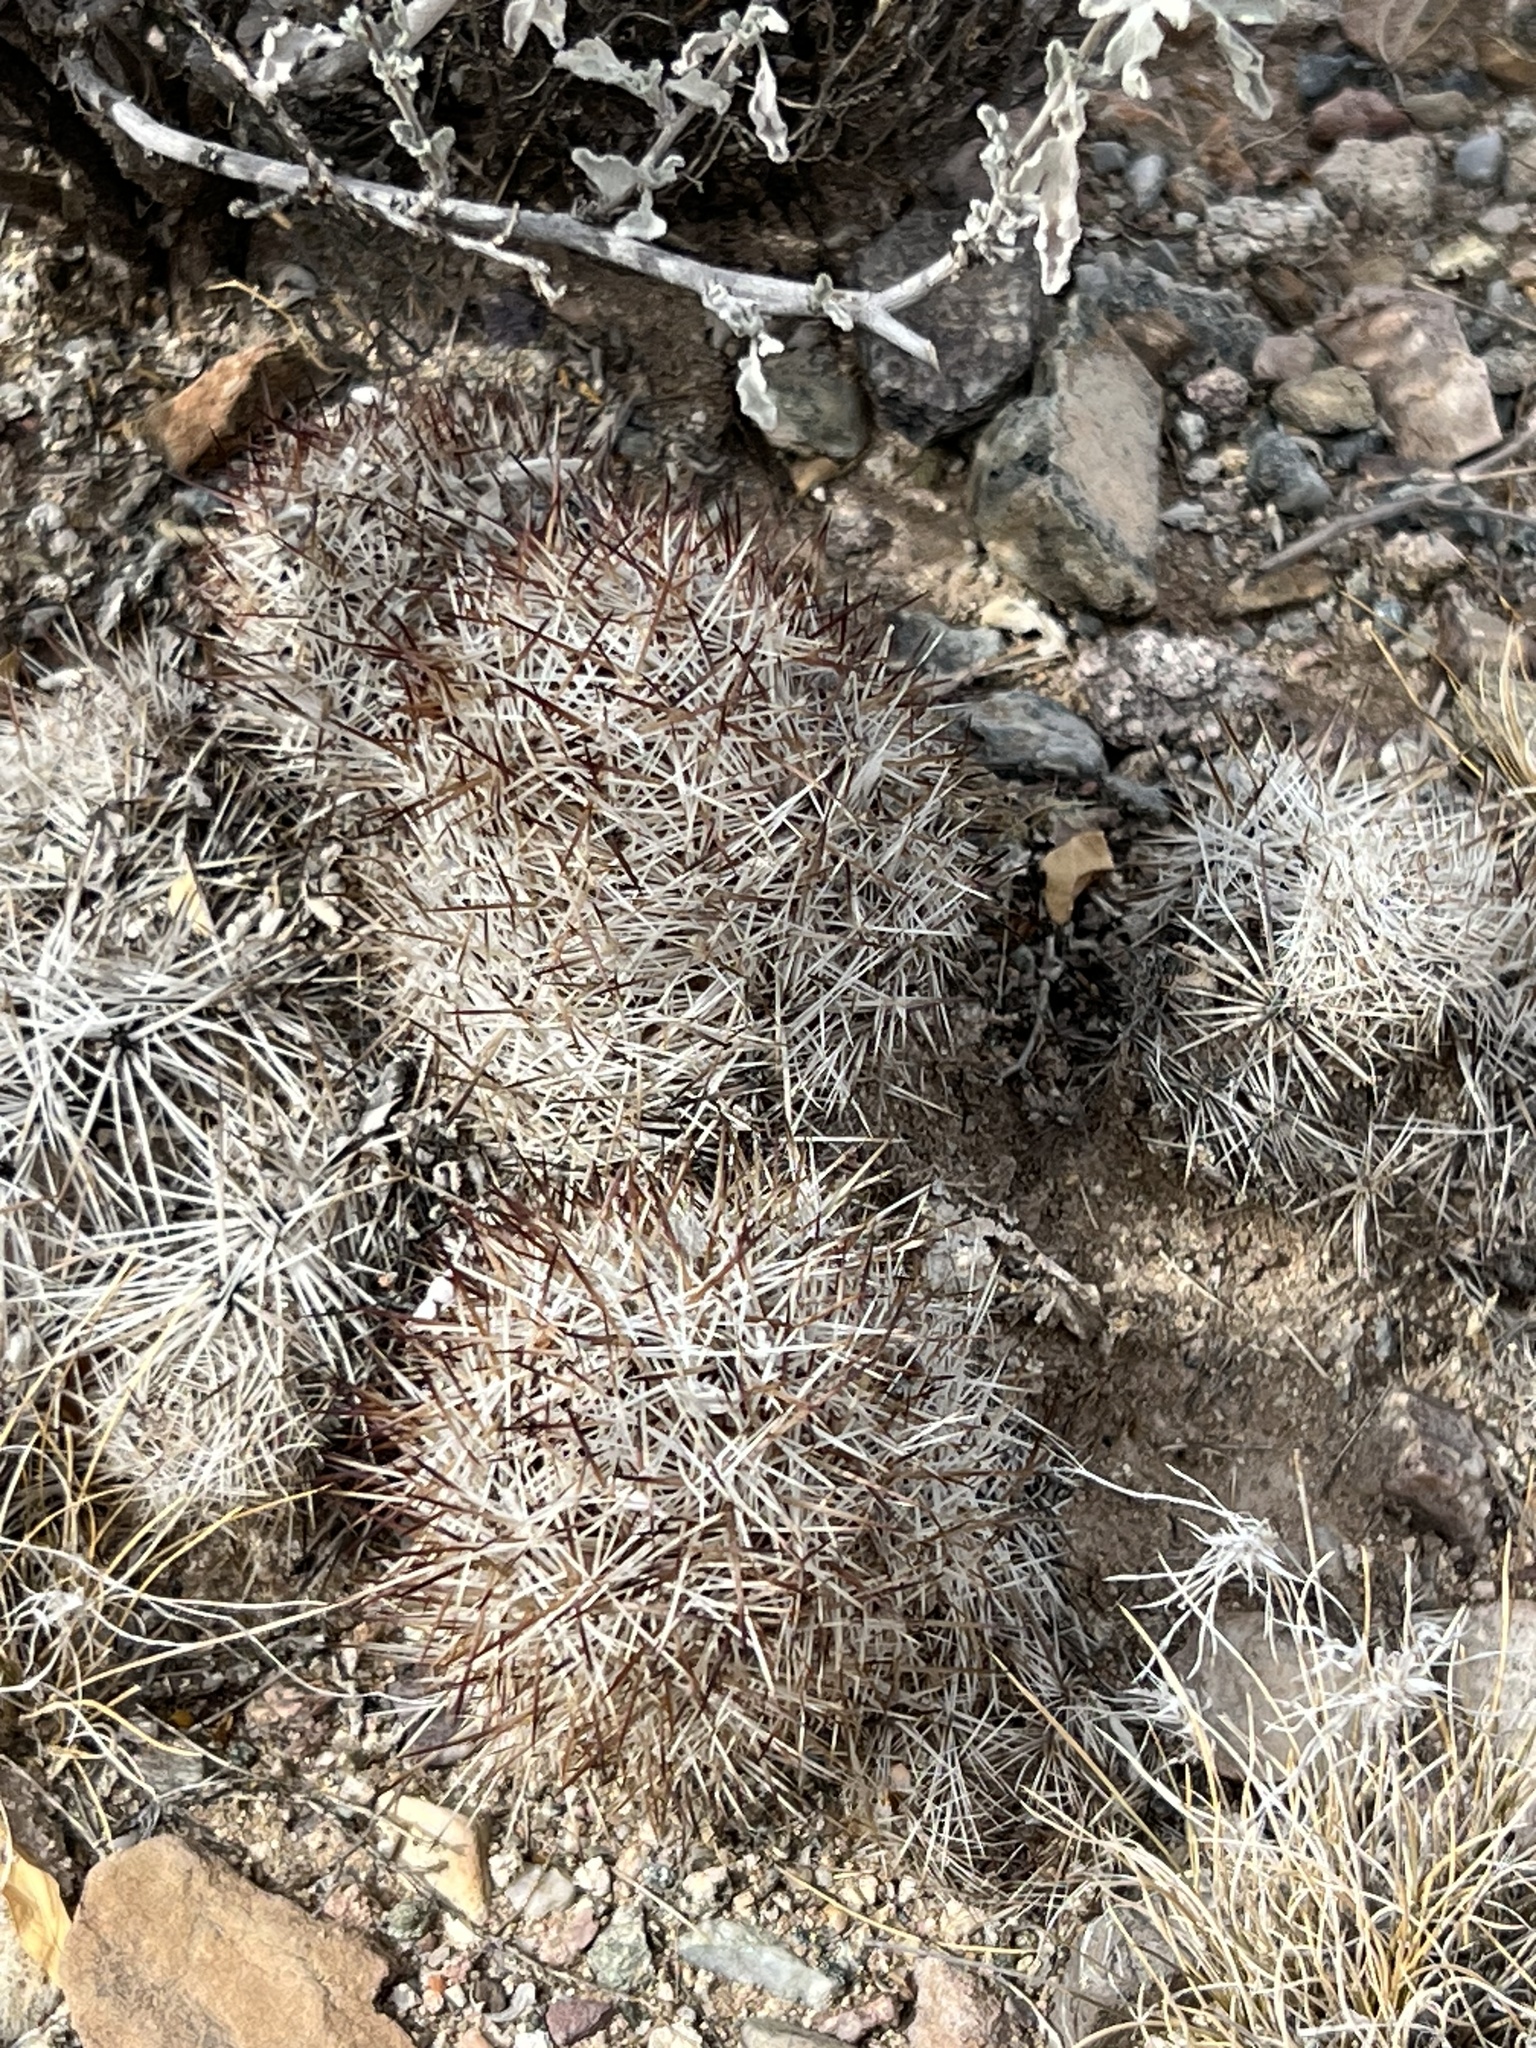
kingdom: Plantae
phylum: Tracheophyta
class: Magnoliopsida
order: Caryophyllales
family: Cactaceae
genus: Pelecyphora
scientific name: Pelecyphora vivipara
